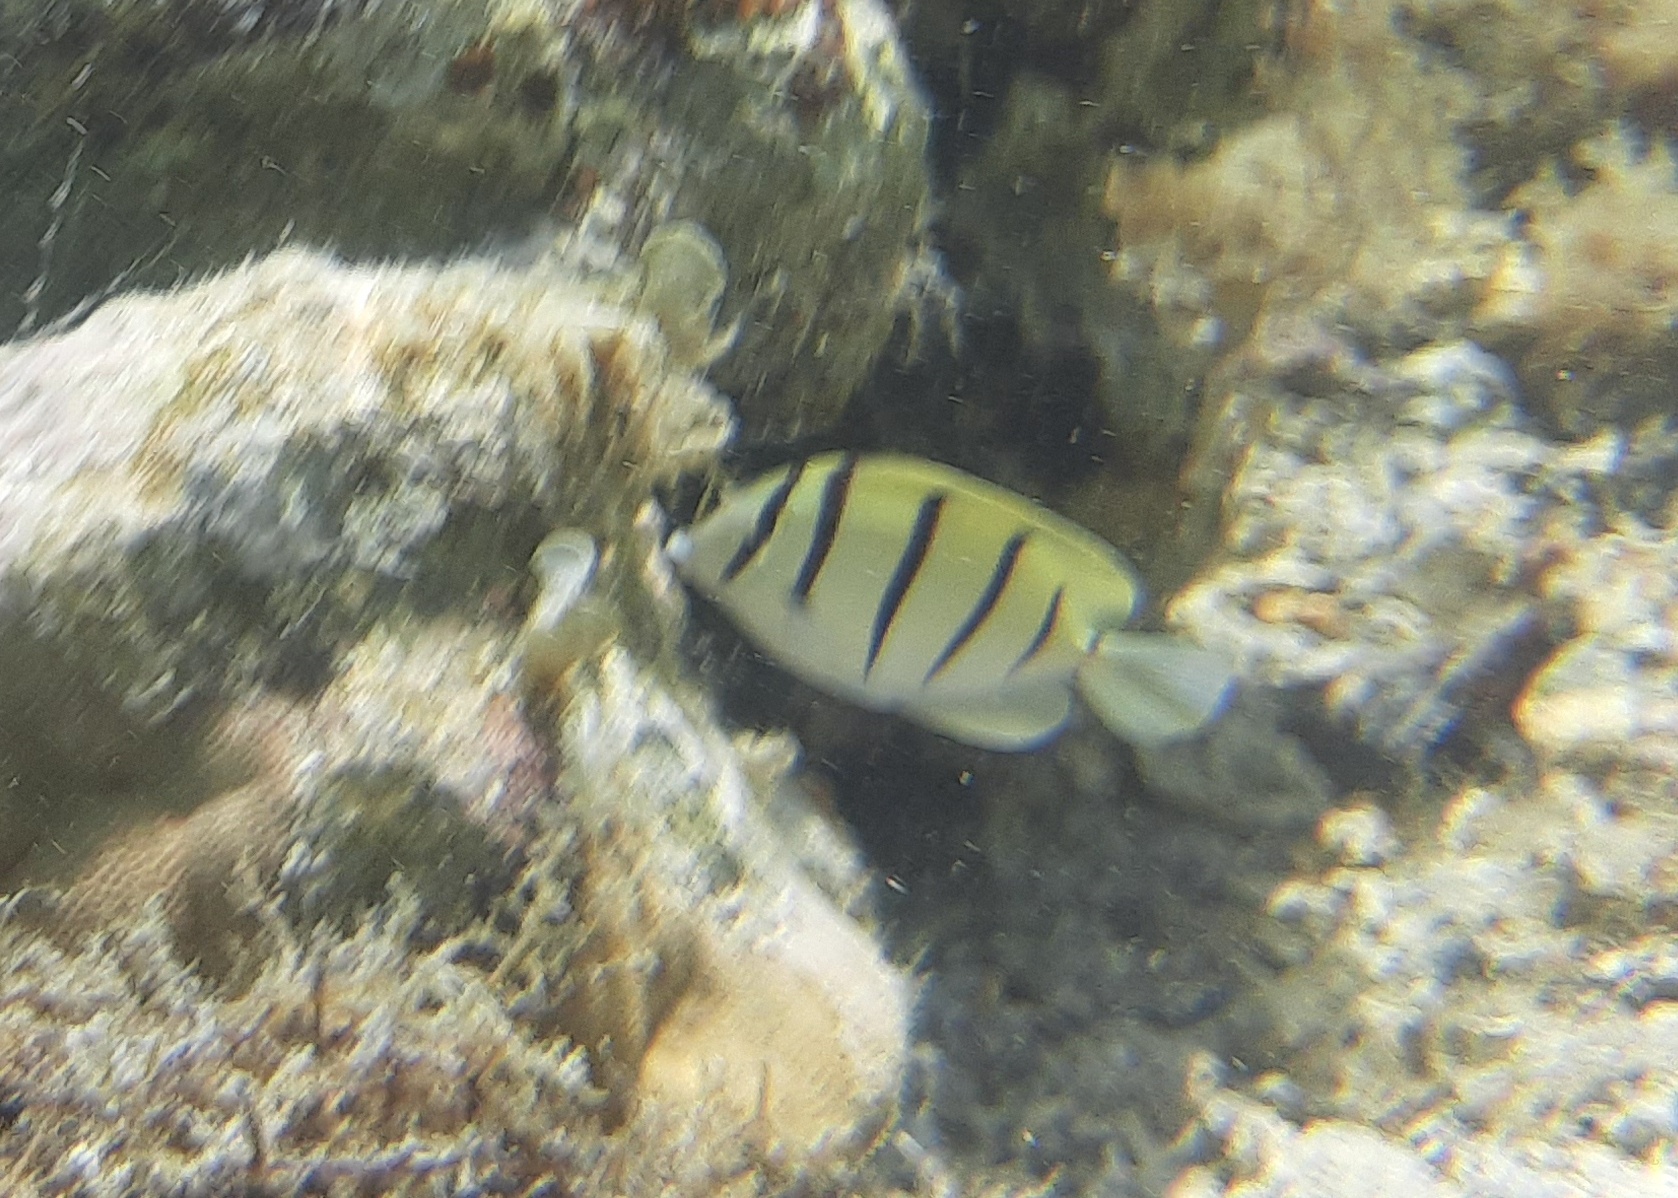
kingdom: Animalia
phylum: Chordata
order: Perciformes
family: Acanthuridae
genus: Acanthurus
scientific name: Acanthurus triostegus
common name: Convict surgeonfish
